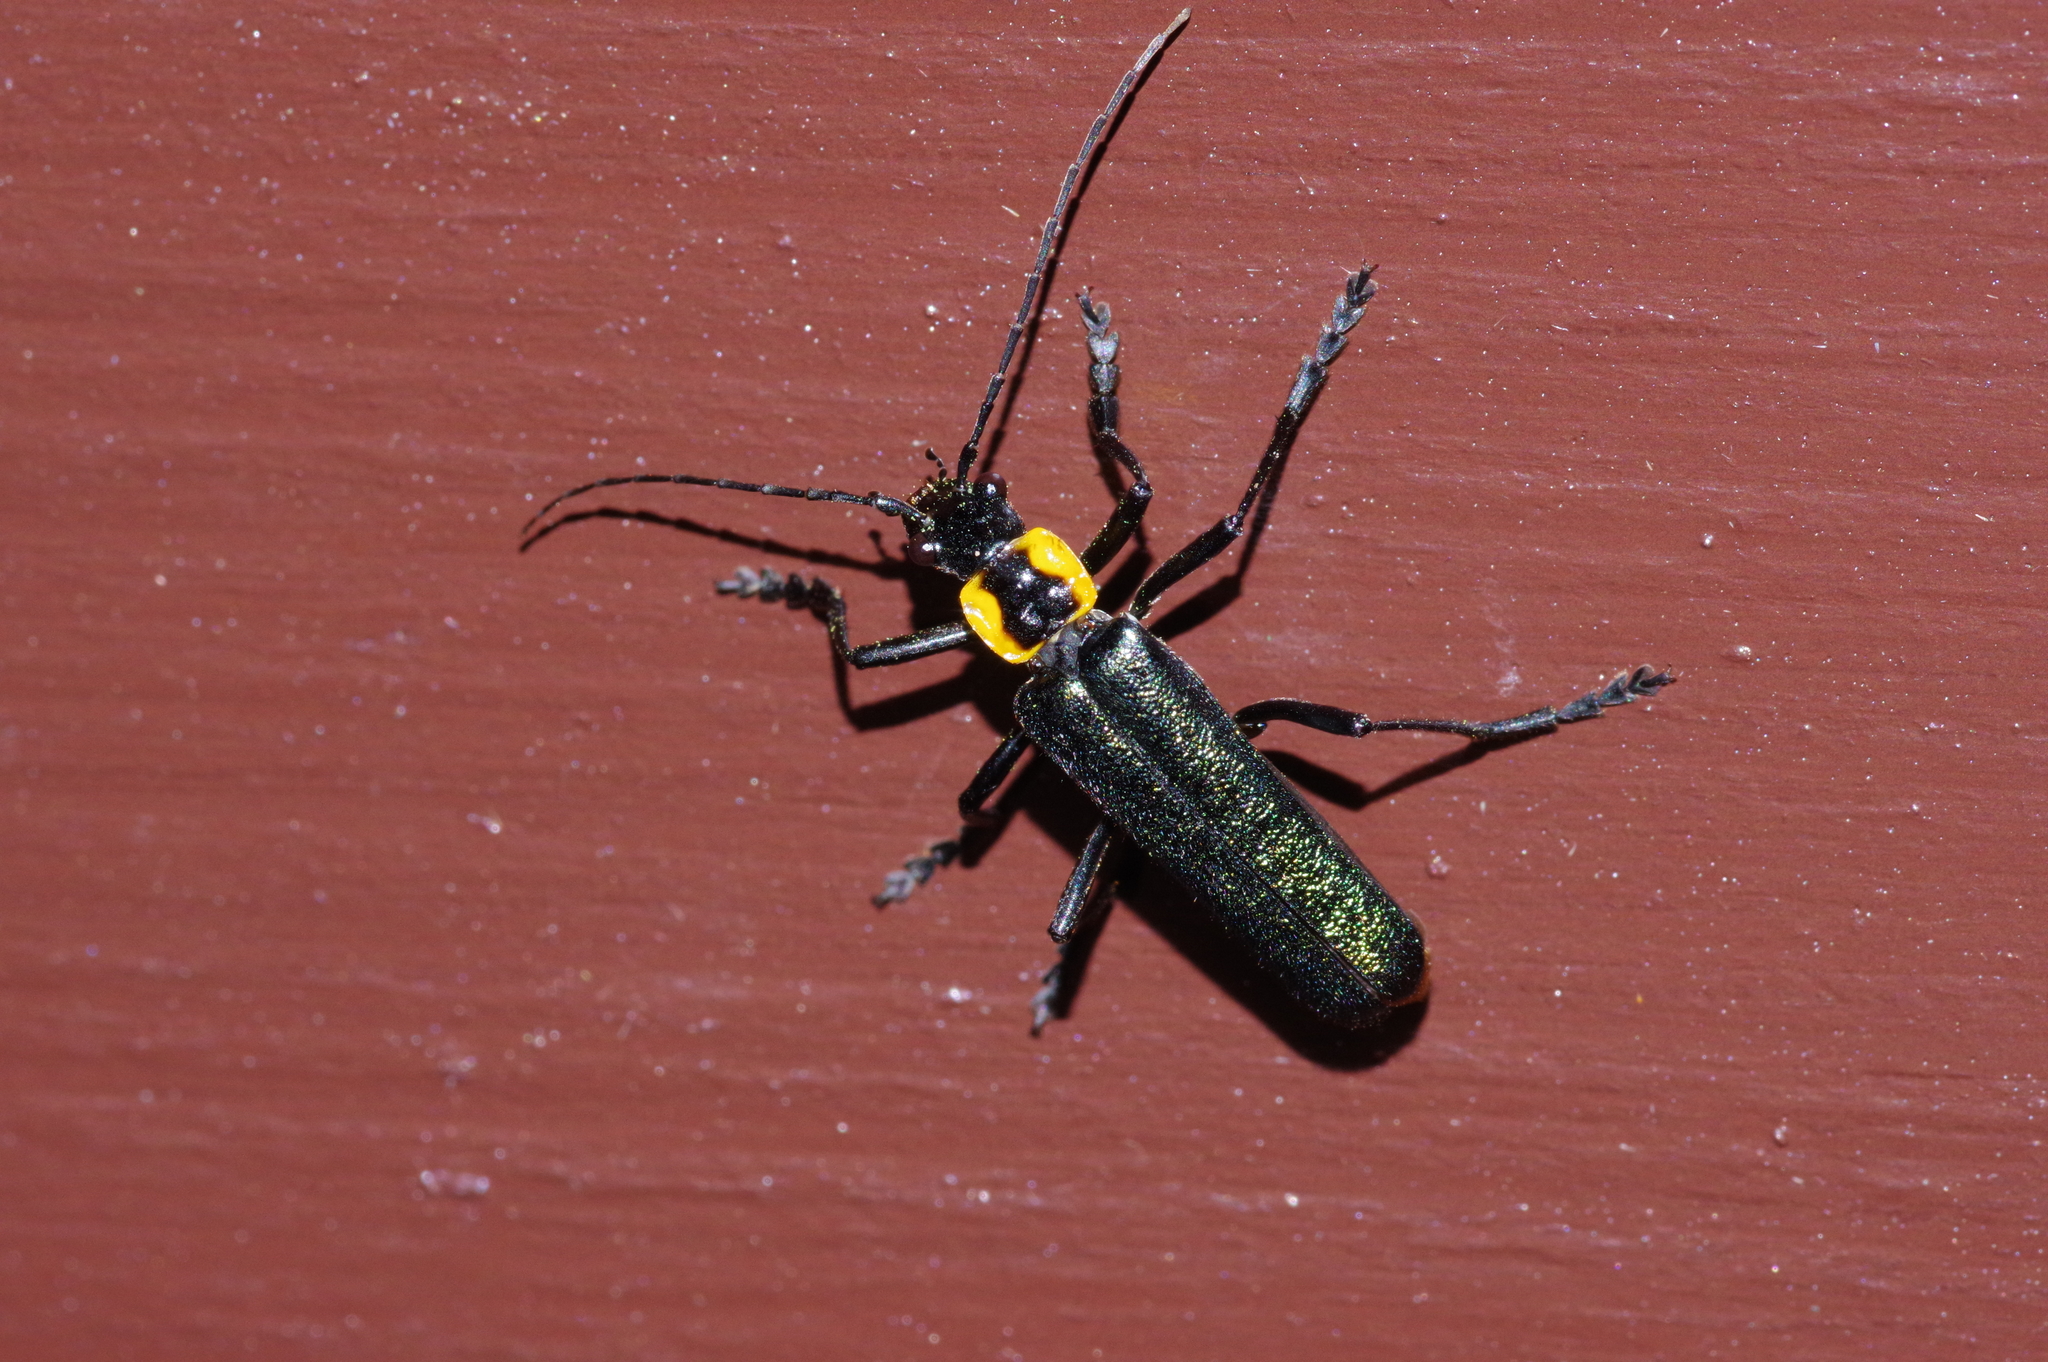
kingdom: Animalia
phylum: Arthropoda
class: Insecta
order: Coleoptera
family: Cantharidae
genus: Themus
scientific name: Themus
